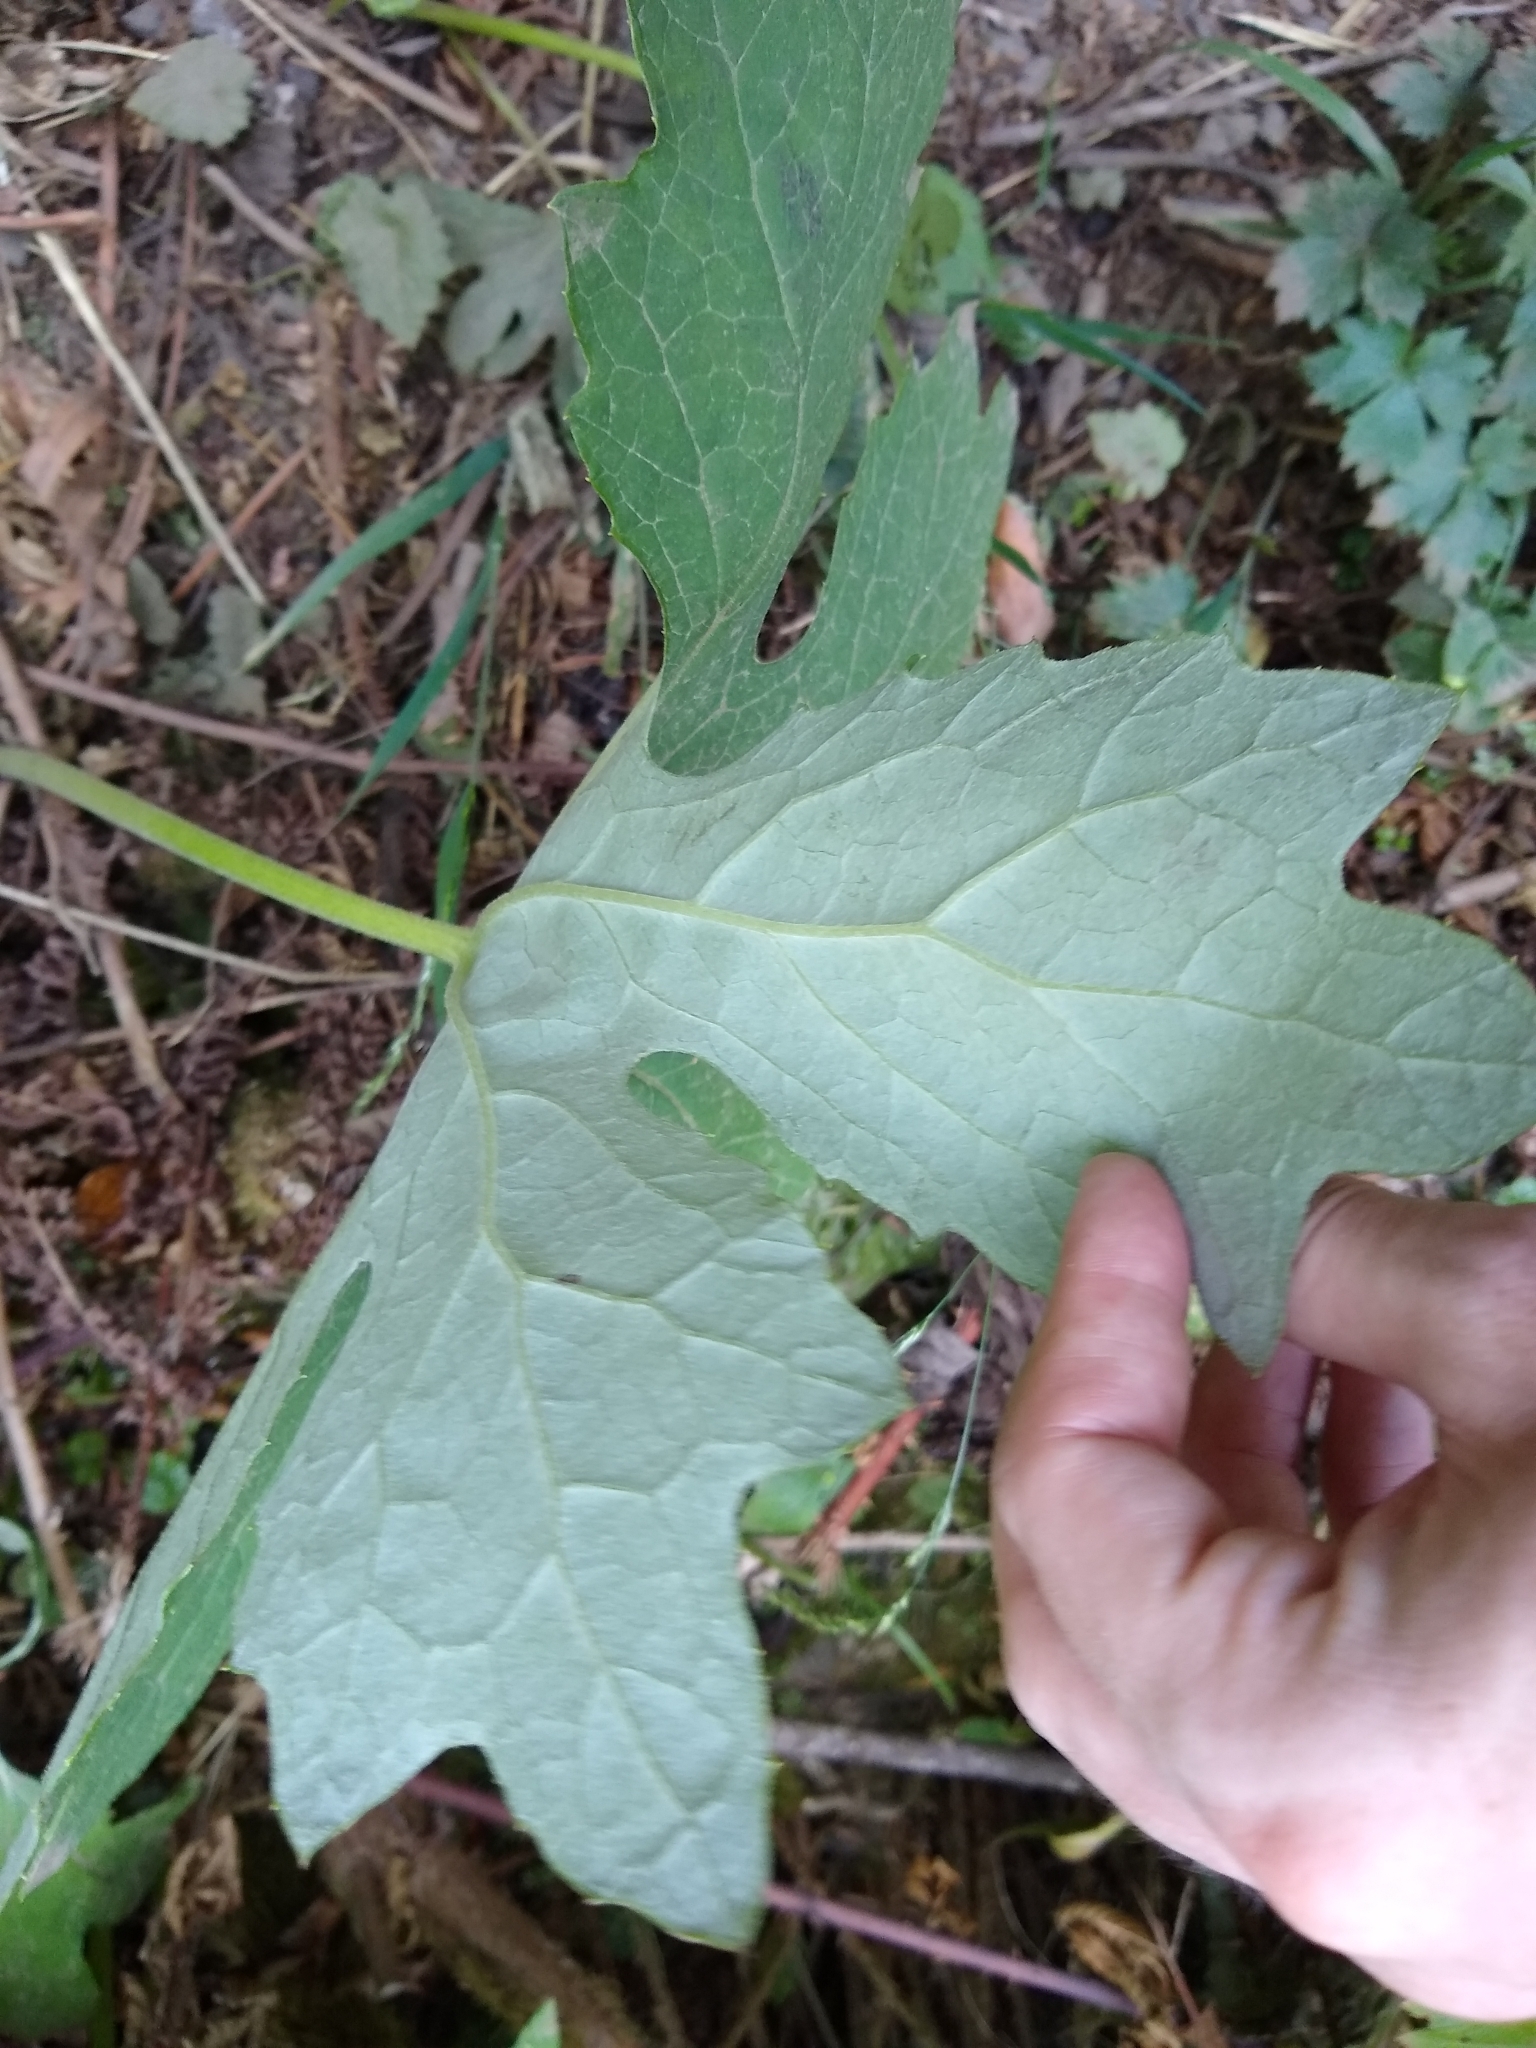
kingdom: Plantae
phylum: Tracheophyta
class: Magnoliopsida
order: Asterales
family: Asteraceae
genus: Petasites
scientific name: Petasites frigidus
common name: Arctic butterbur
